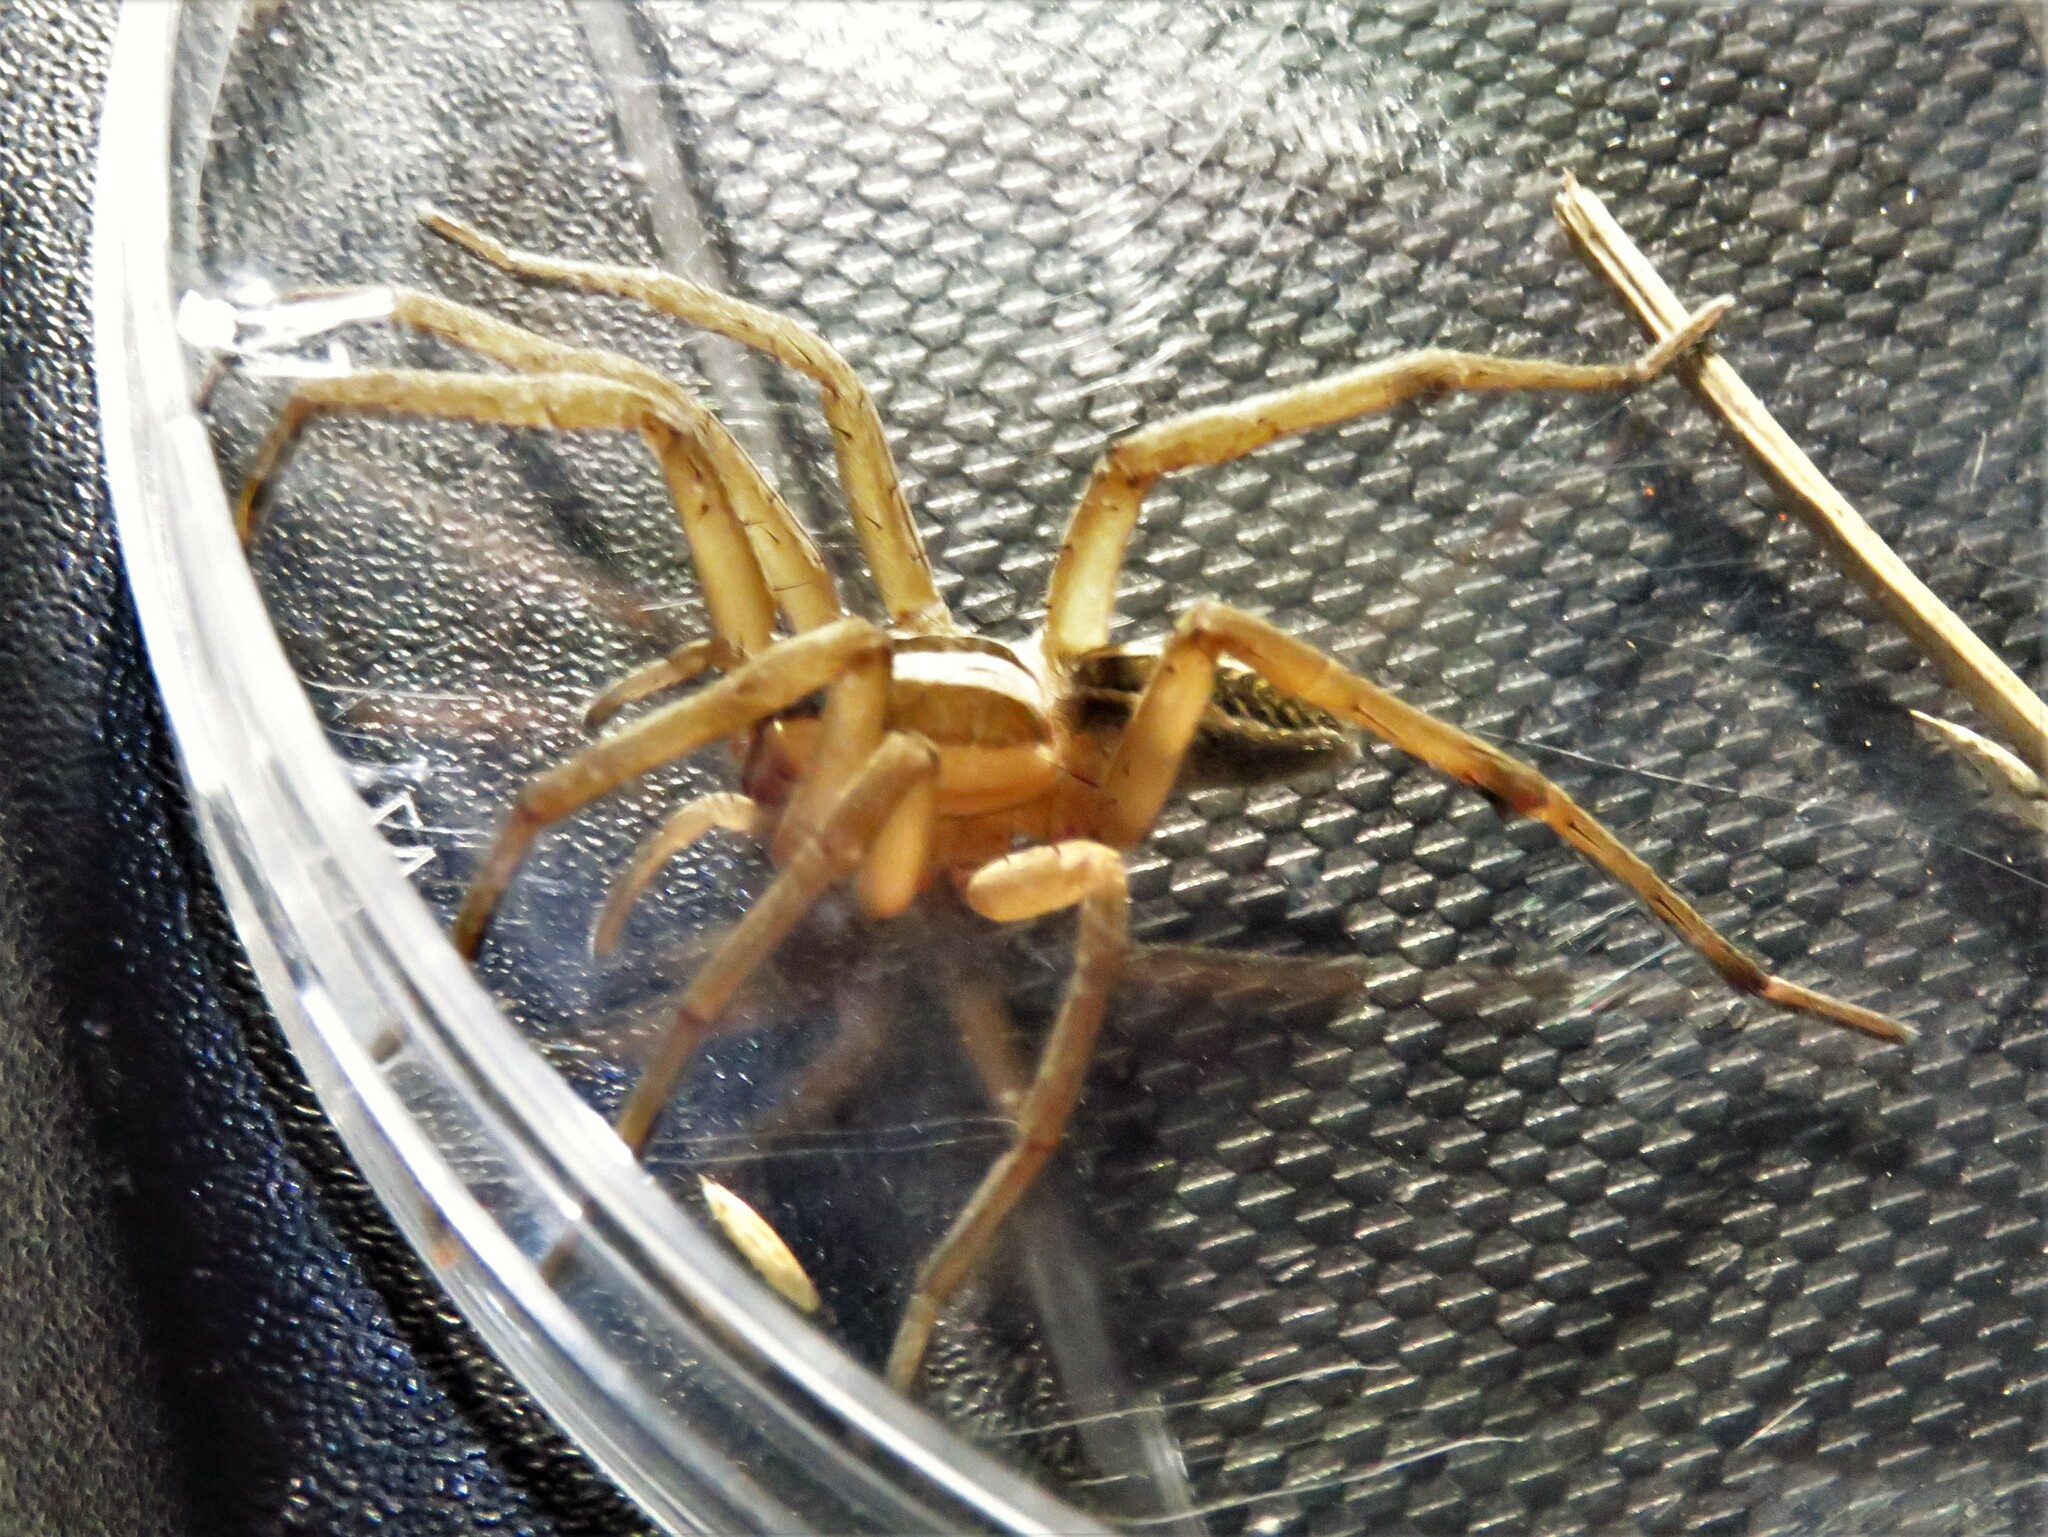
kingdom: Animalia
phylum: Arthropoda
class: Arachnida
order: Araneae
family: Lycosidae
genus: Rabidosa
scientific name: Rabidosa rabida
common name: Rabid wolf spider
